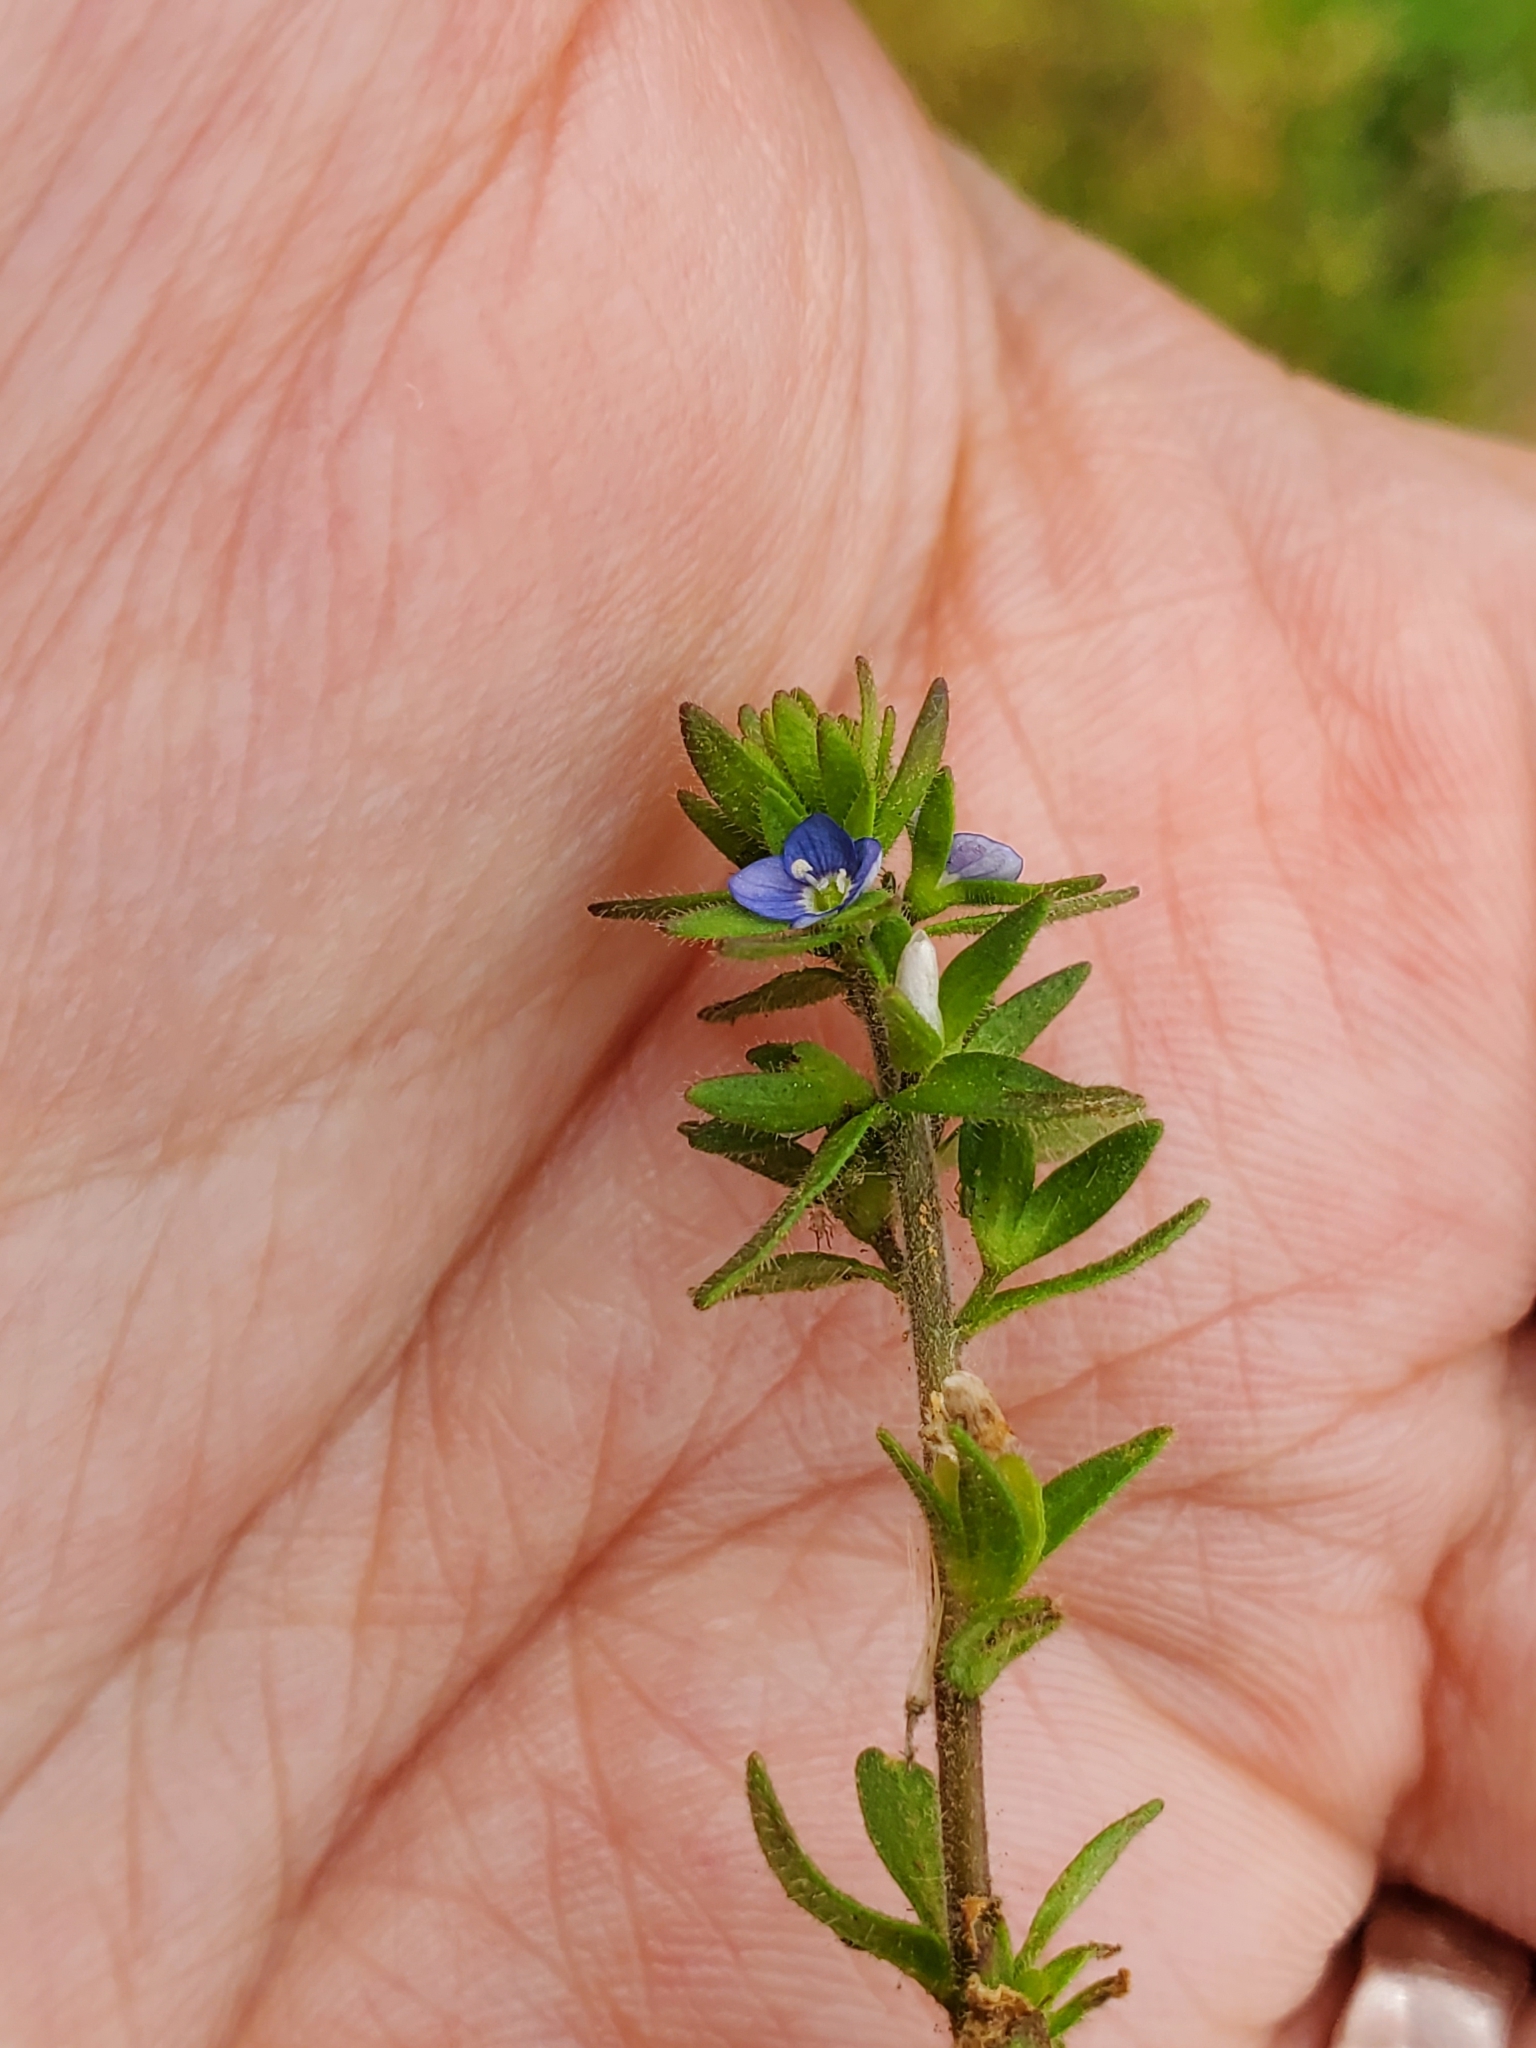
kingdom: Plantae
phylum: Tracheophyta
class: Magnoliopsida
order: Lamiales
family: Plantaginaceae
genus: Veronica
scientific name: Veronica arvensis
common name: Corn speedwell
